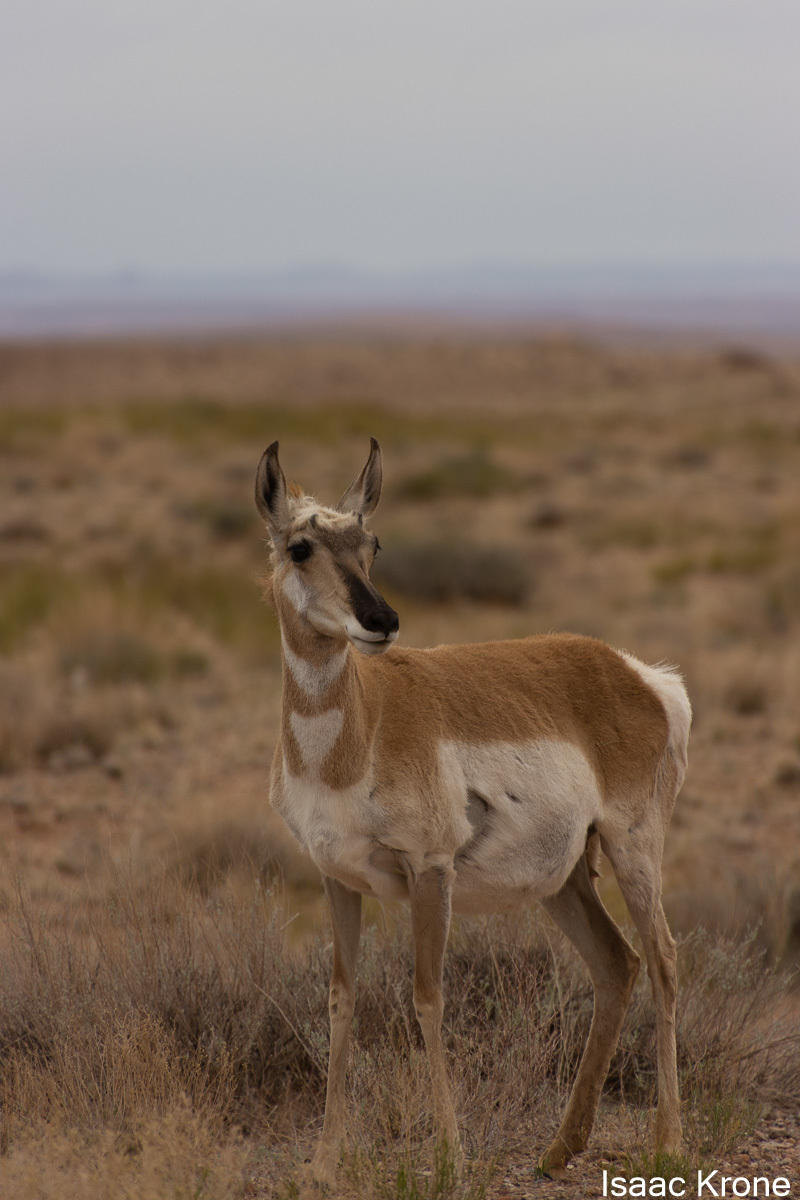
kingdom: Animalia
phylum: Chordata
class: Mammalia
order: Artiodactyla
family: Antilocapridae
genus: Antilocapra
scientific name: Antilocapra americana
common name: Pronghorn
